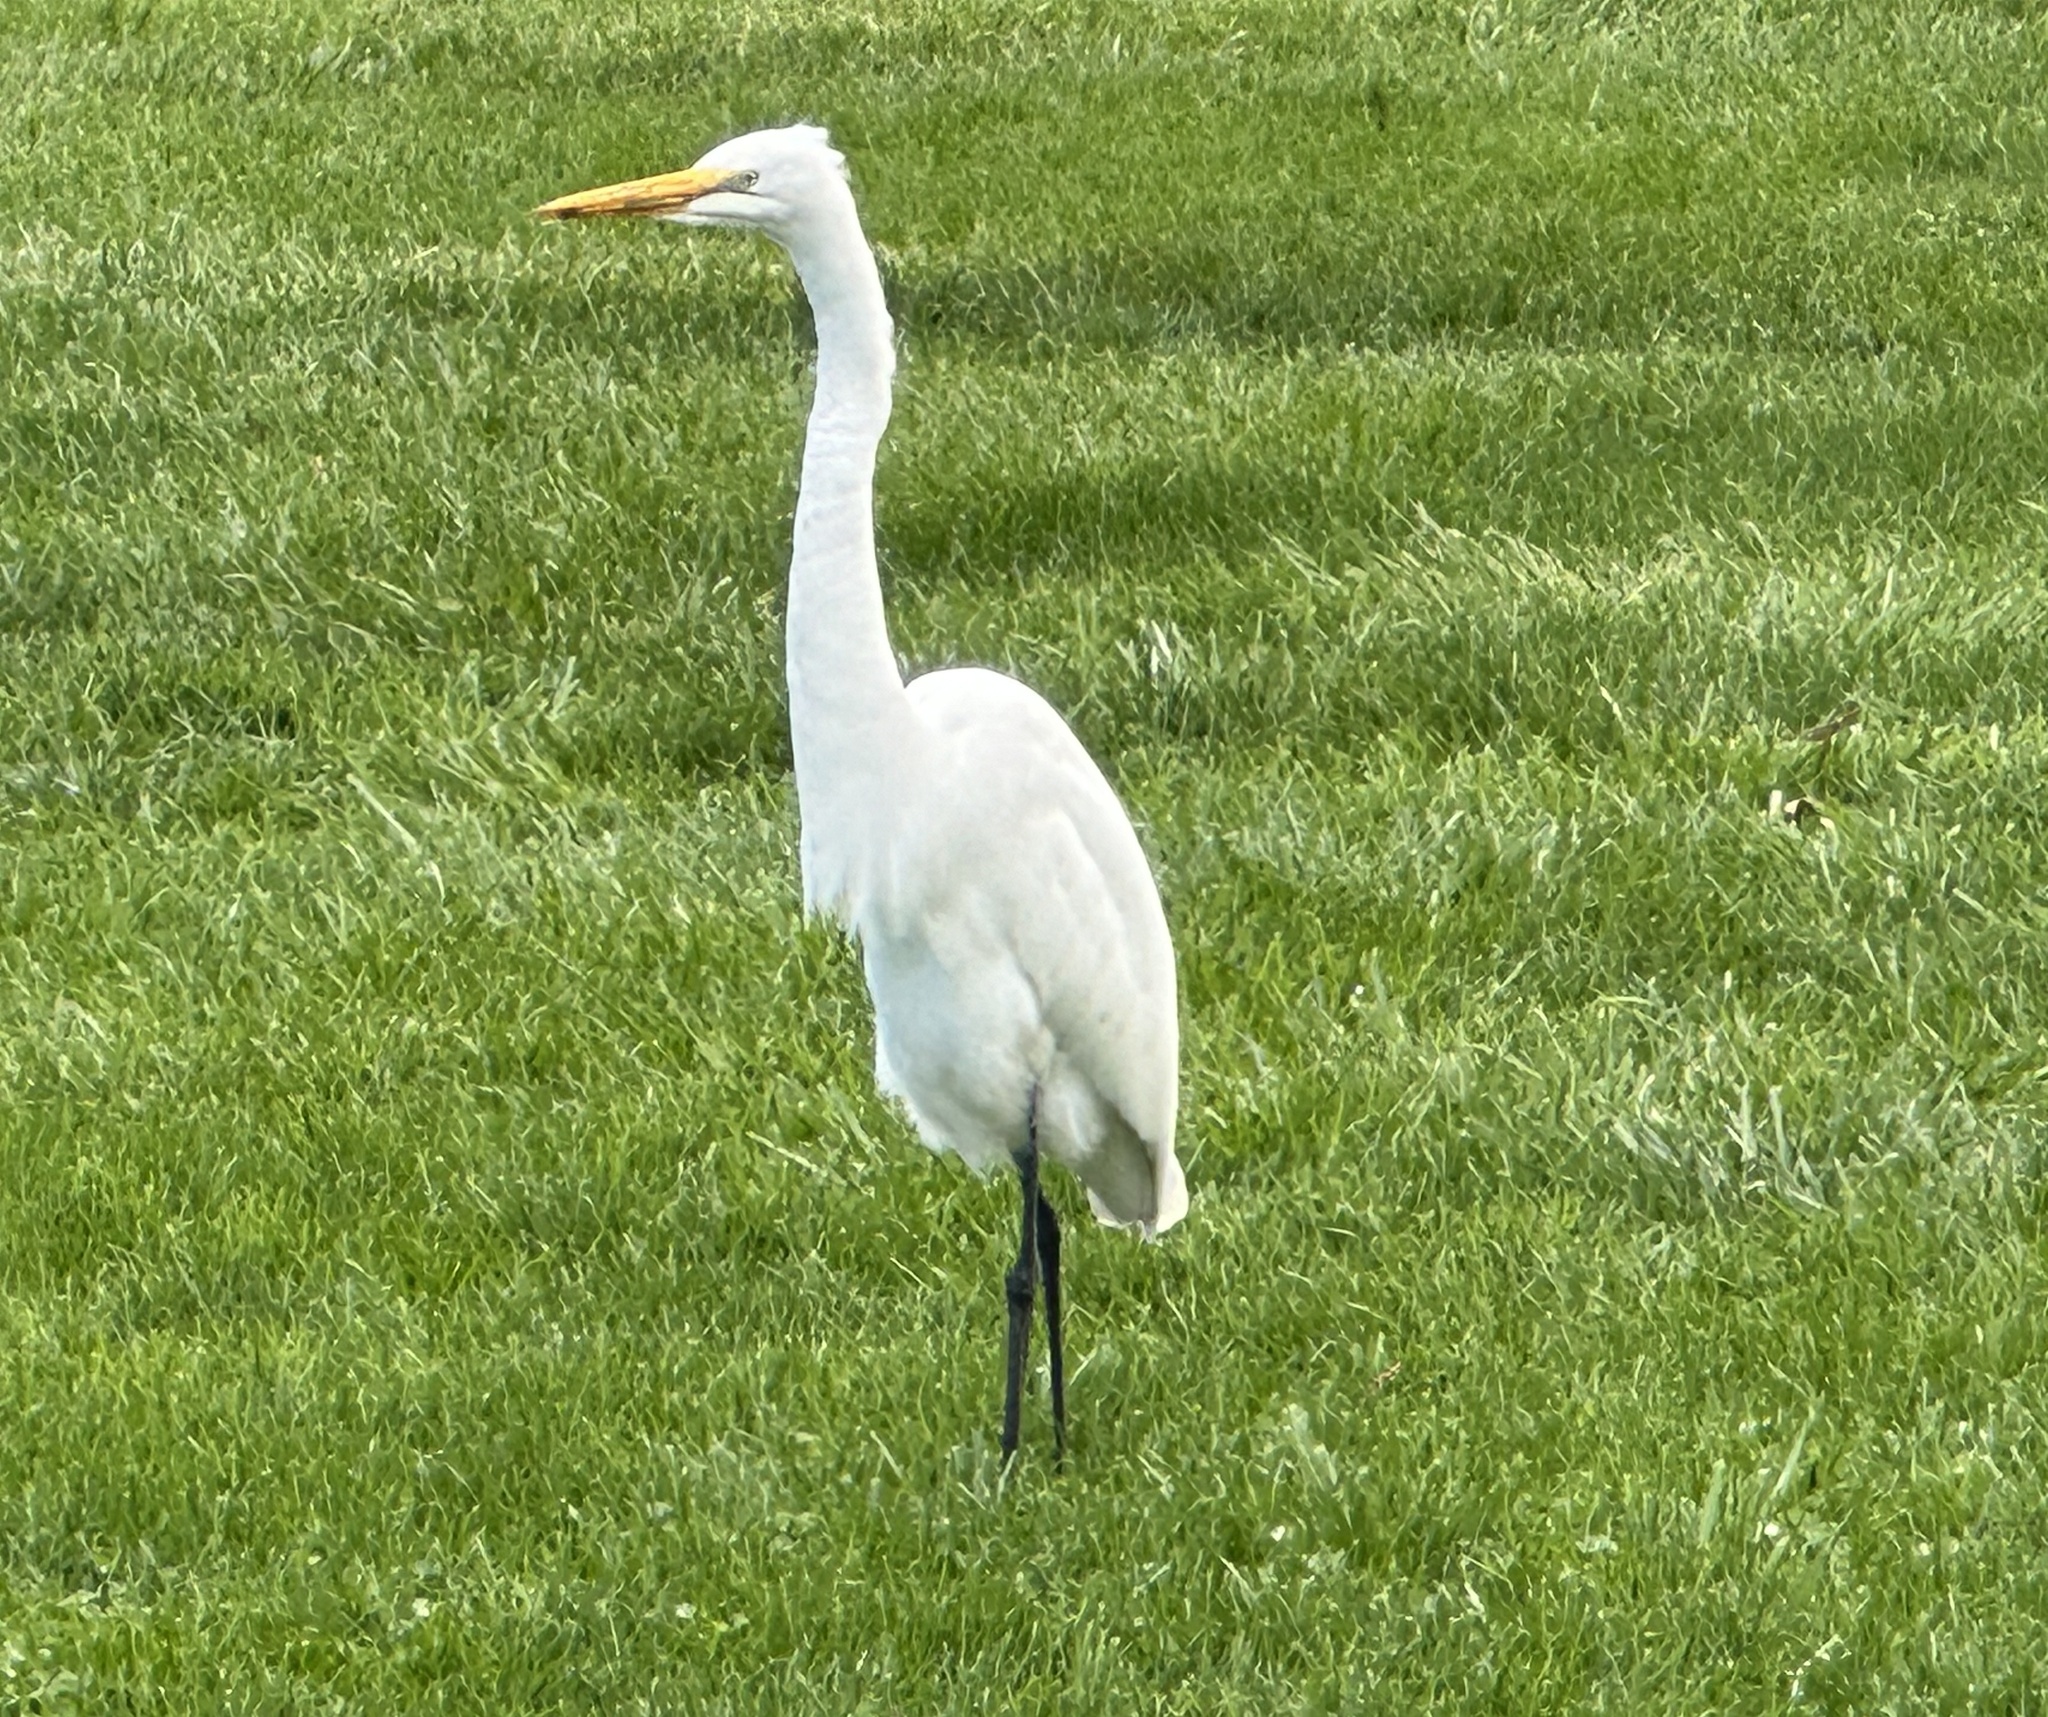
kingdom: Animalia
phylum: Chordata
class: Aves
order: Pelecaniformes
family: Ardeidae
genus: Ardea
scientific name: Ardea alba
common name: Great egret
